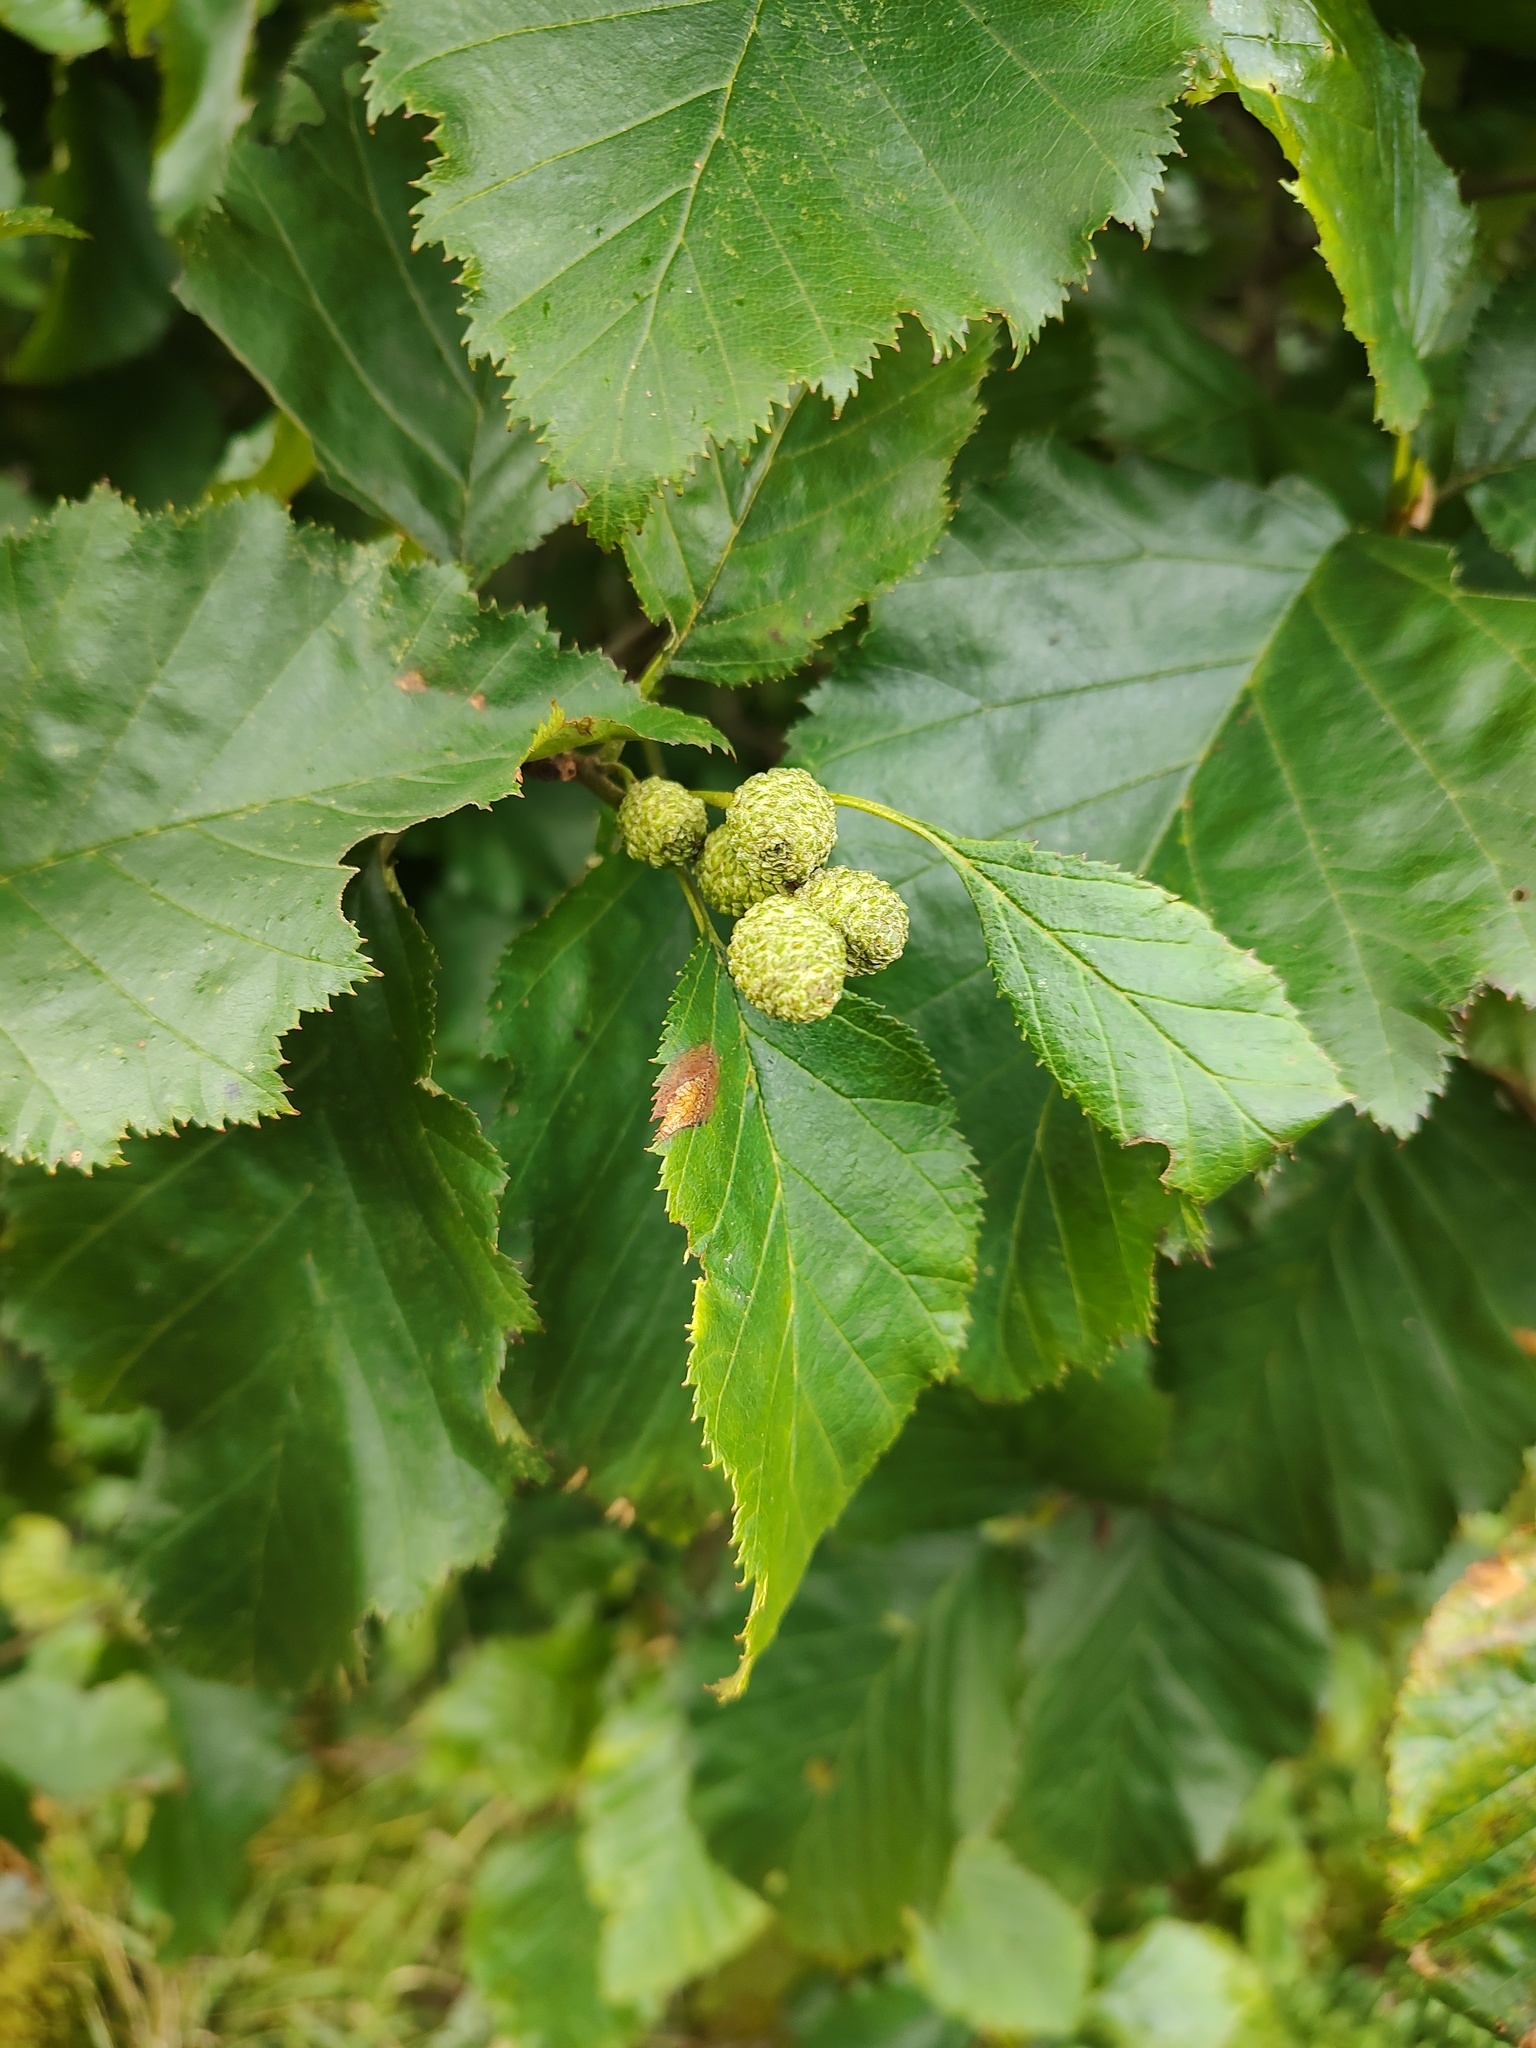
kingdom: Plantae
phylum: Tracheophyta
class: Magnoliopsida
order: Fagales
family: Betulaceae
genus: Alnus
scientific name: Alnus alnobetula
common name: Green alder
